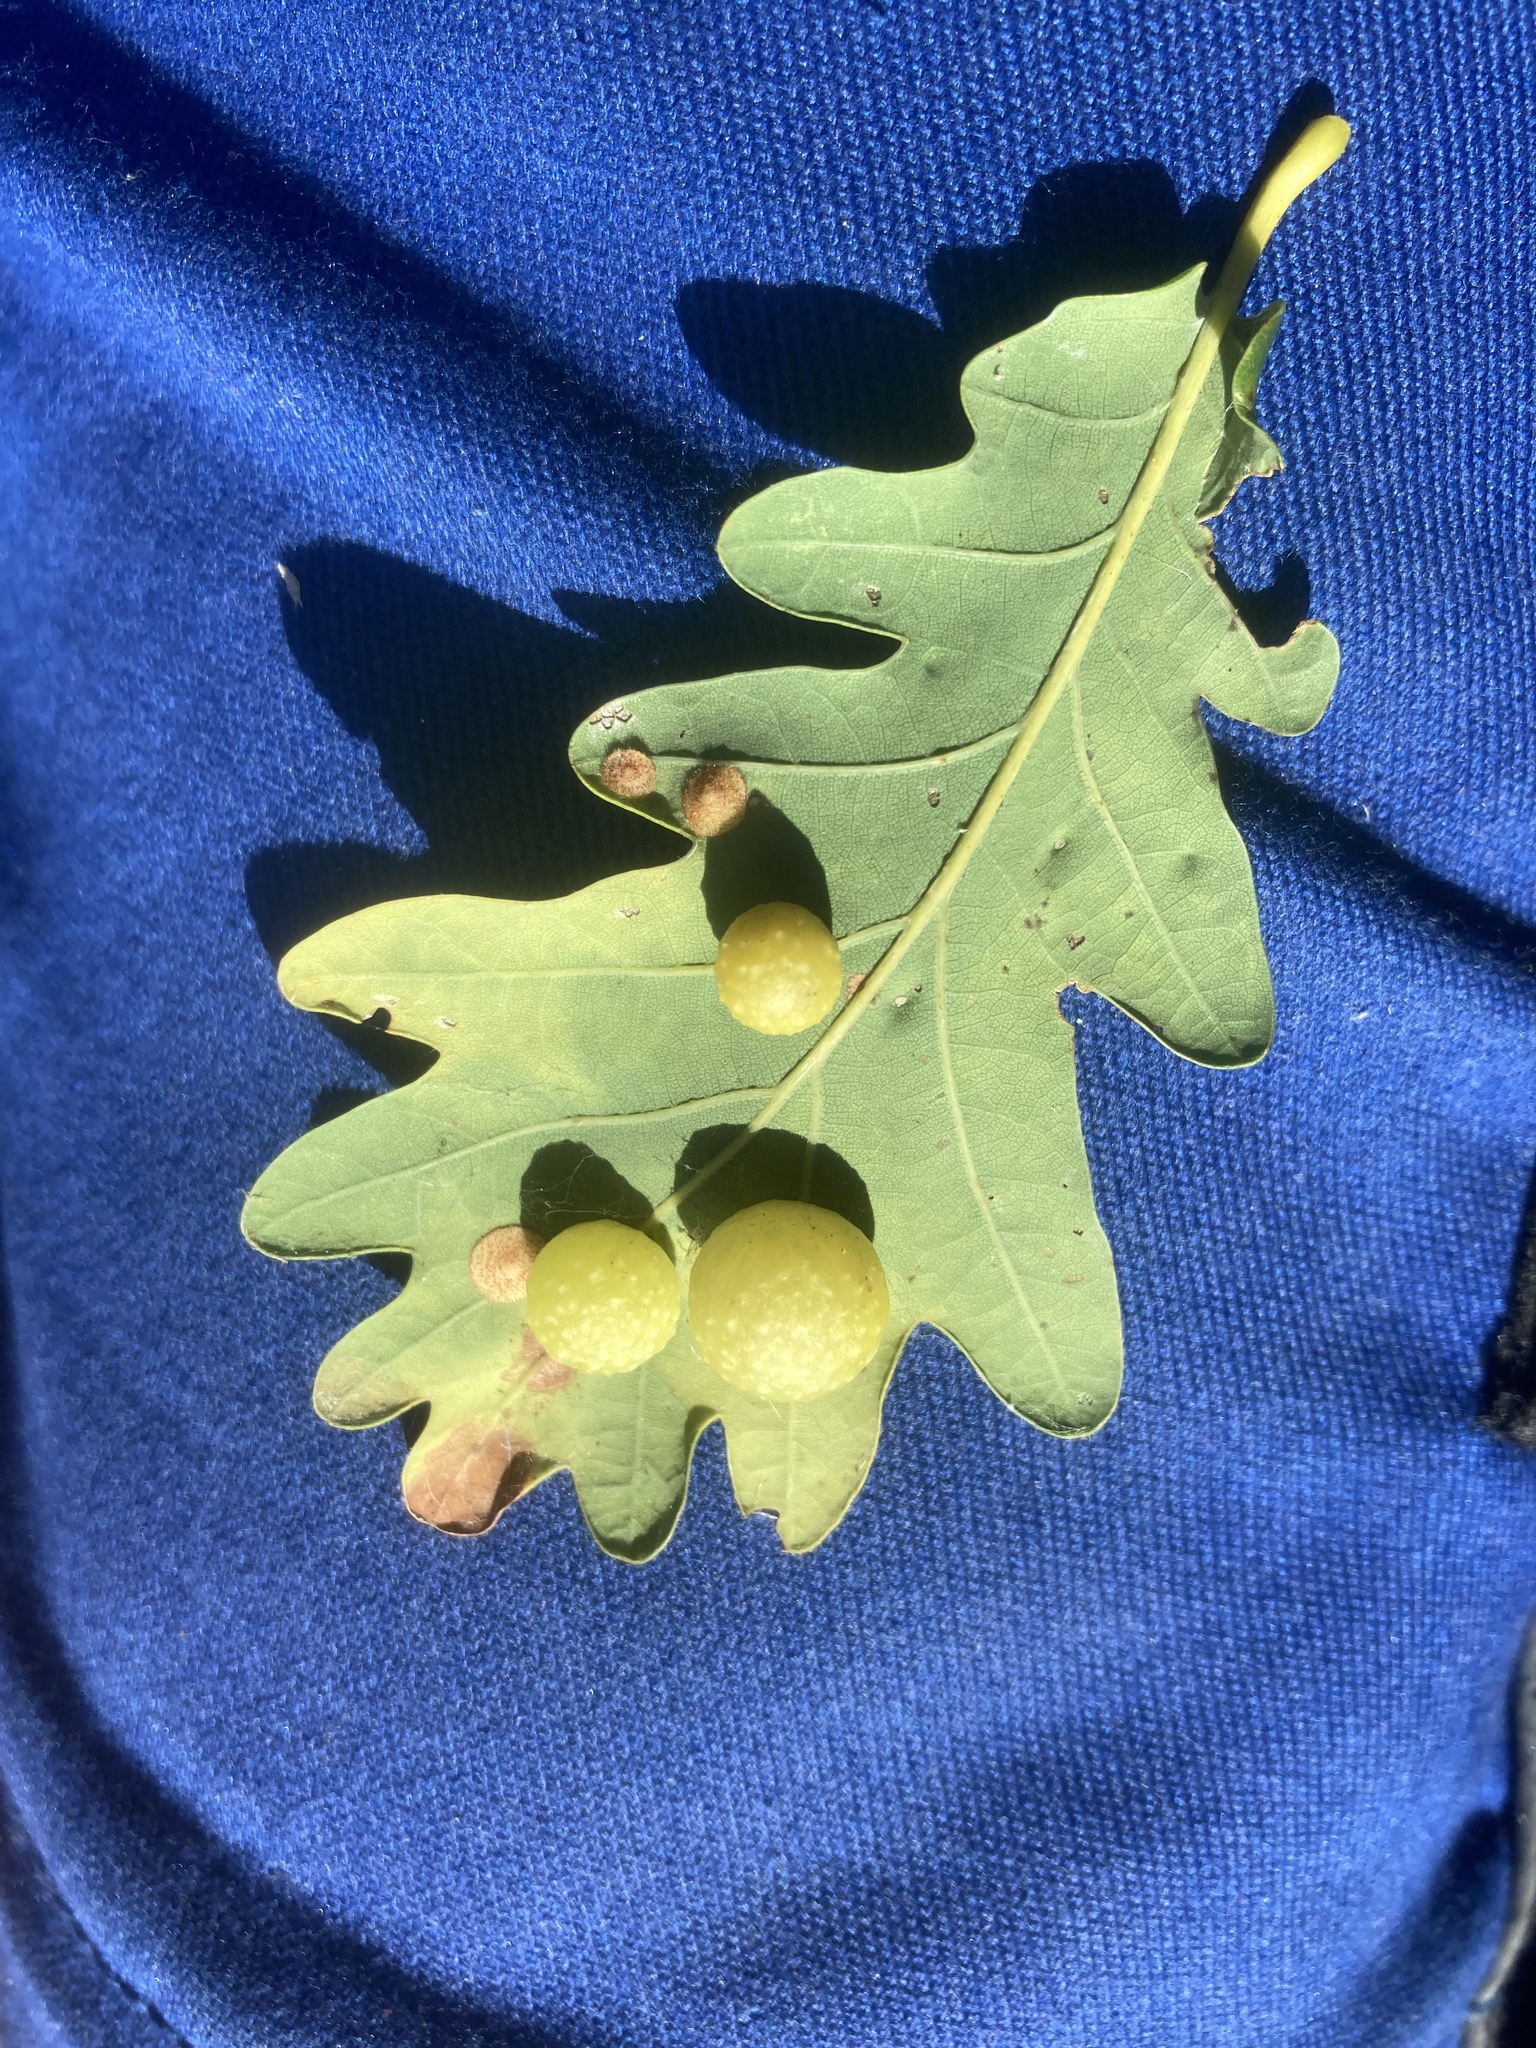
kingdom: Animalia
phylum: Arthropoda
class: Insecta
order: Hymenoptera
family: Cynipidae
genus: Cynips
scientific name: Cynips quercusfolii
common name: Cherry gall
